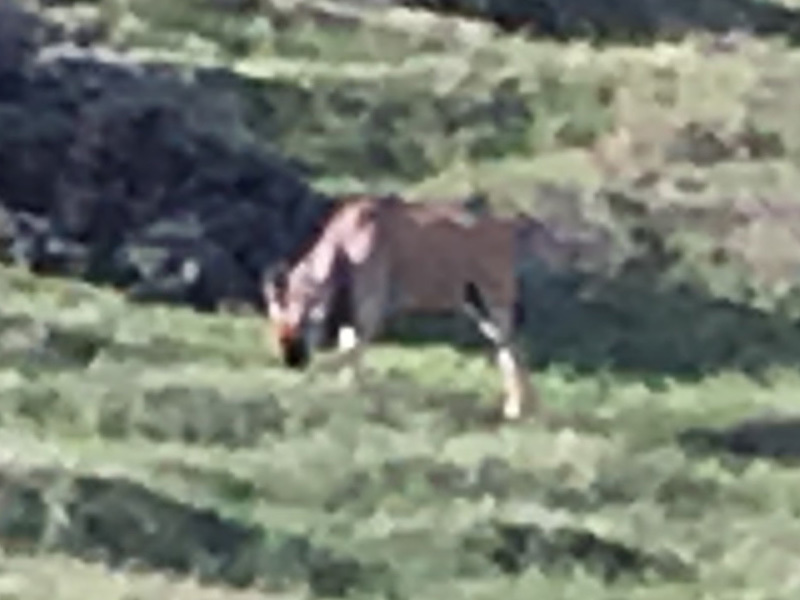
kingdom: Animalia
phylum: Chordata
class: Mammalia
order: Artiodactyla
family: Bovidae
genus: Taurotragus
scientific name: Taurotragus oryx
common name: Common eland
